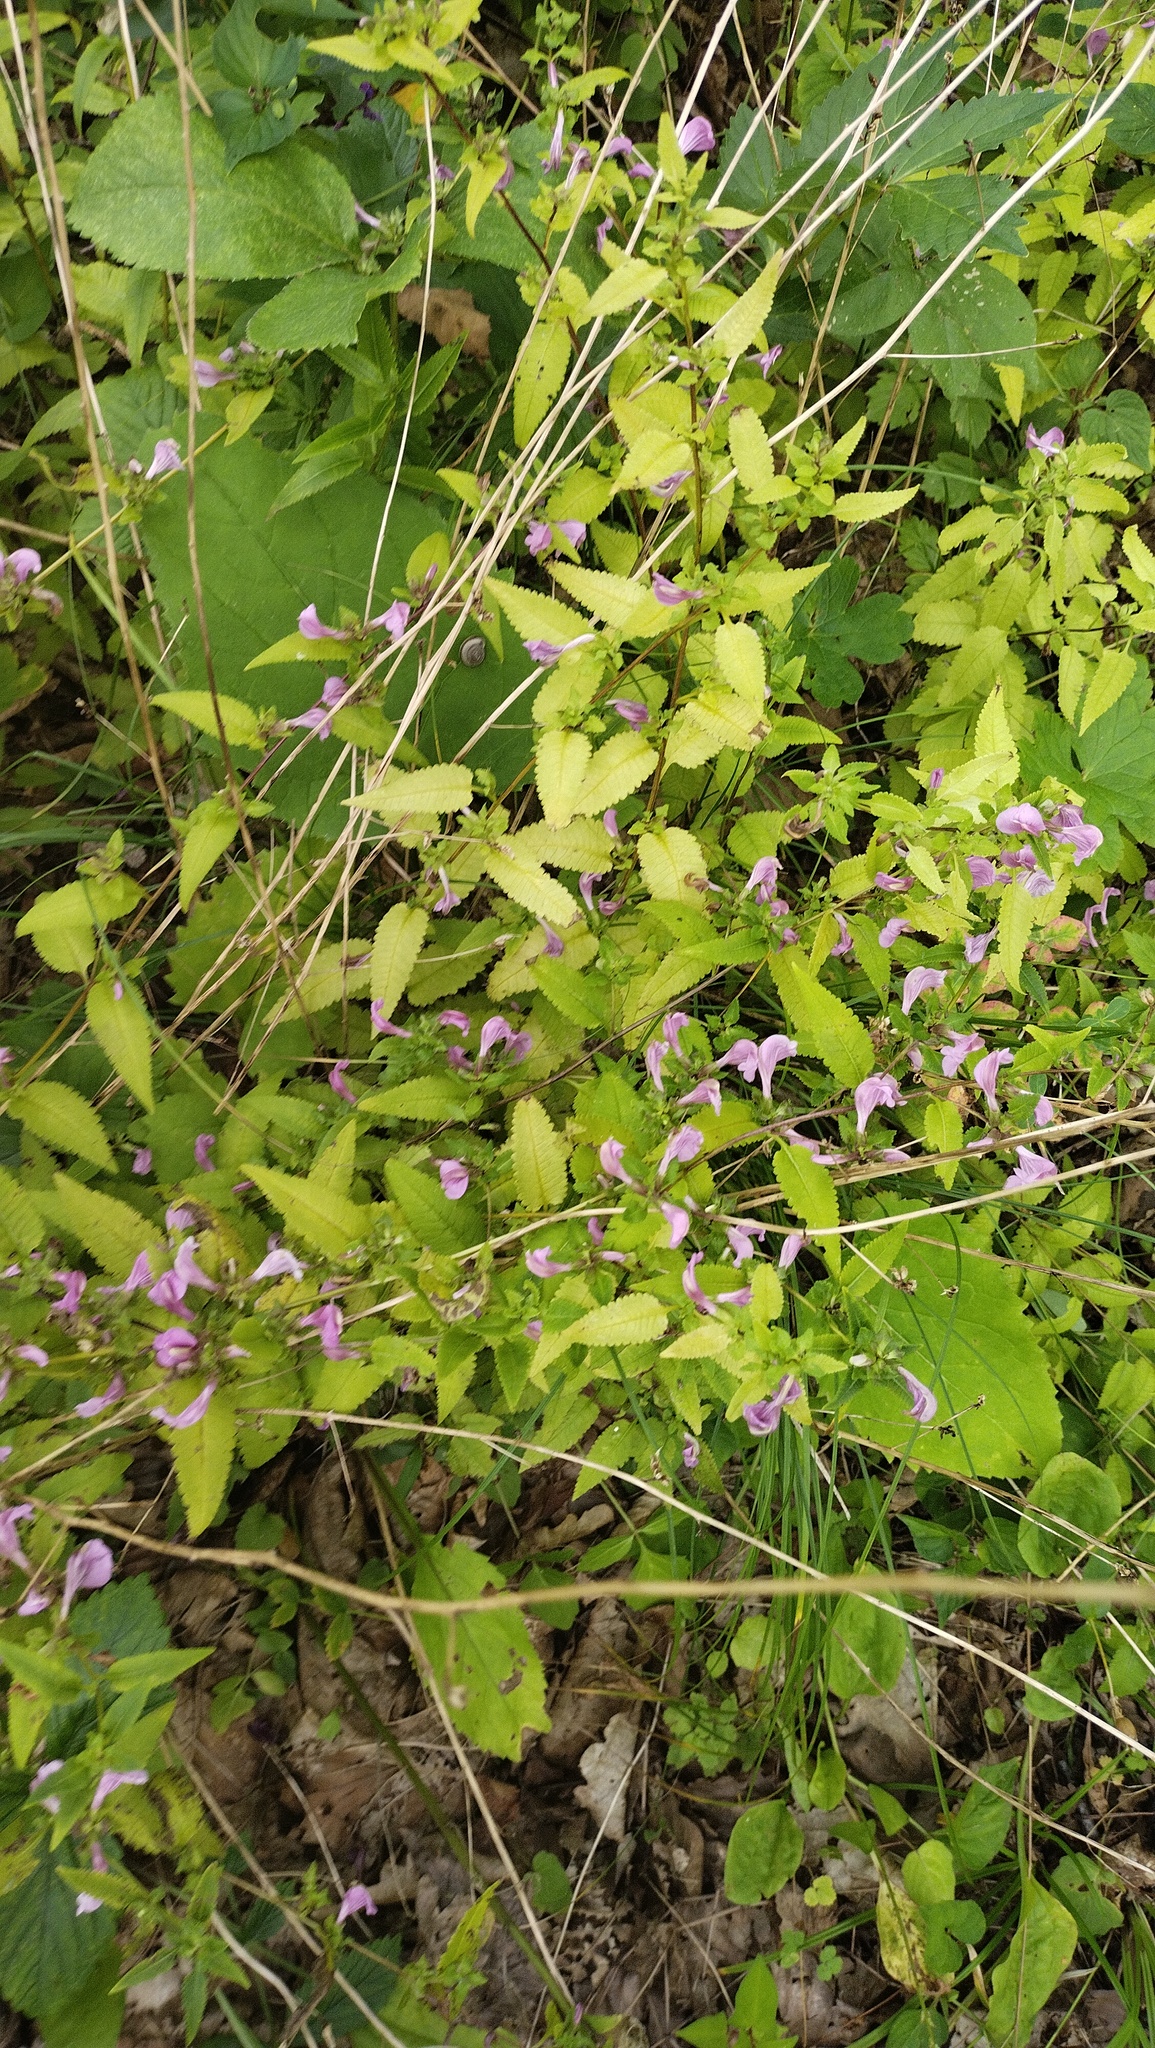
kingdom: Plantae
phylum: Tracheophyta
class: Magnoliopsida
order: Lamiales
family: Orobanchaceae
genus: Pedicularis
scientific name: Pedicularis resupinata
